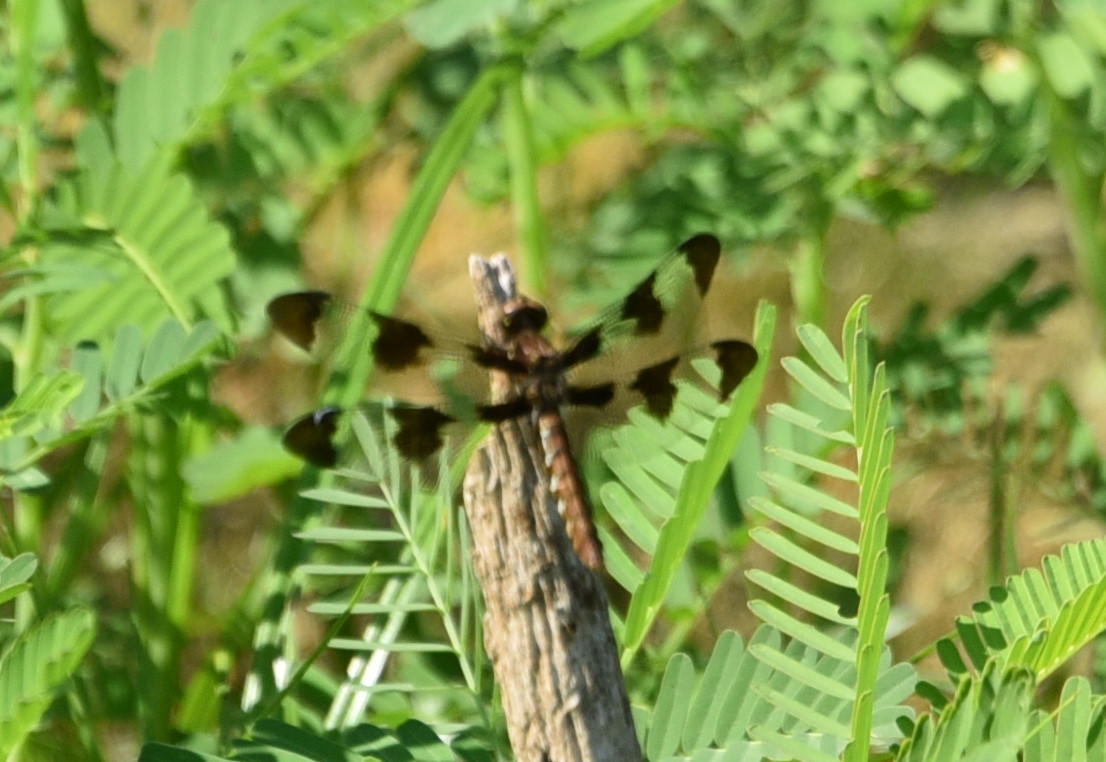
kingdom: Animalia
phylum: Arthropoda
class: Insecta
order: Odonata
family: Libellulidae
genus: Plathemis
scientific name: Plathemis lydia
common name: Common whitetail
